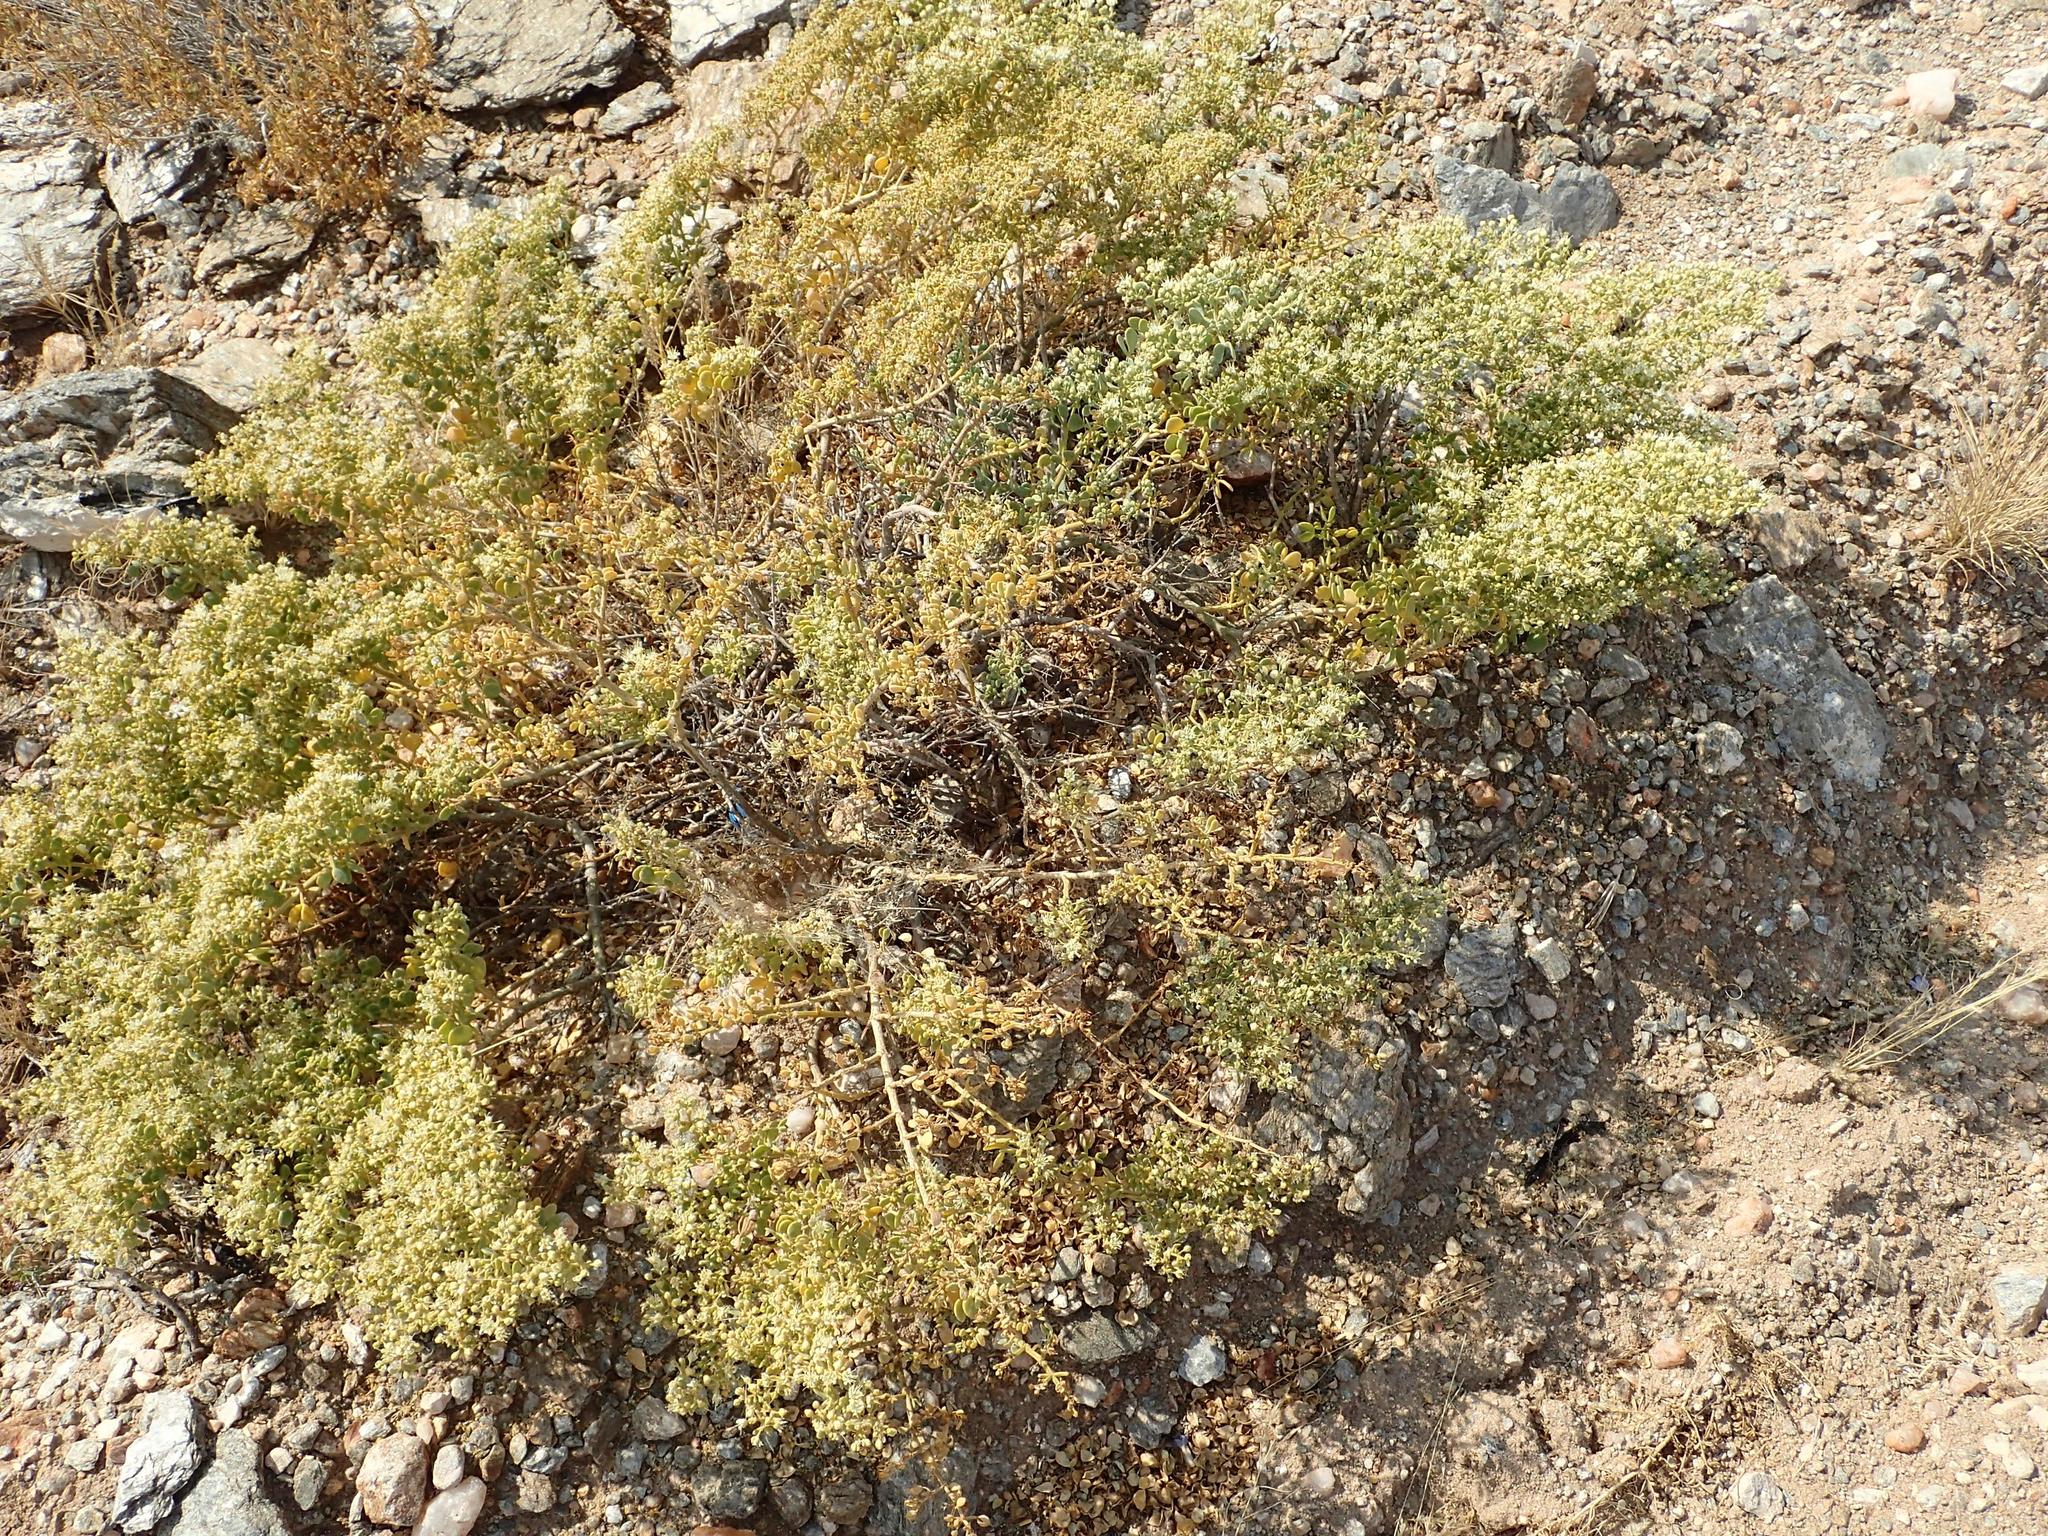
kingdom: Plantae
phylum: Tracheophyta
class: Magnoliopsida
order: Zygophyllales
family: Zygophyllaceae
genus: Tetraena
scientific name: Tetraena retrofracta
